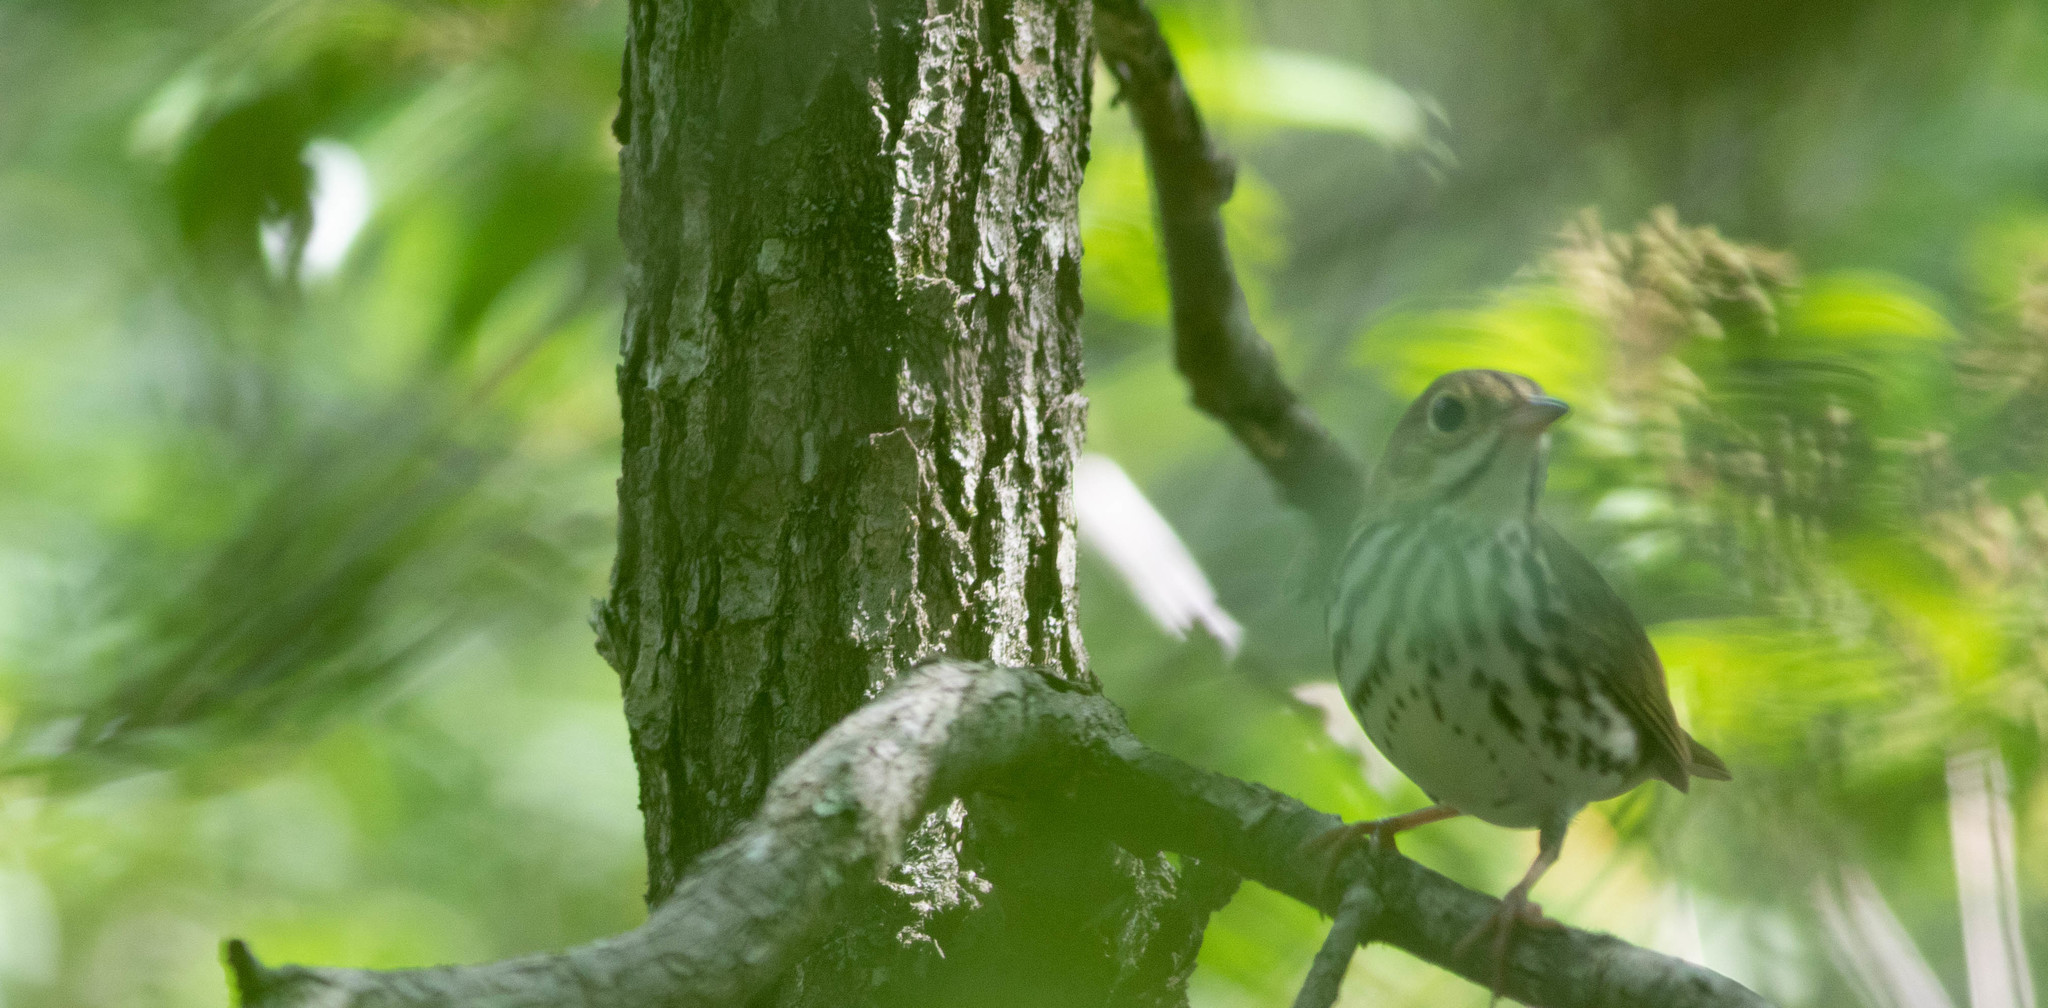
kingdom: Animalia
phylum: Chordata
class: Aves
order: Passeriformes
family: Parulidae
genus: Seiurus
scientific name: Seiurus aurocapilla
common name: Ovenbird
